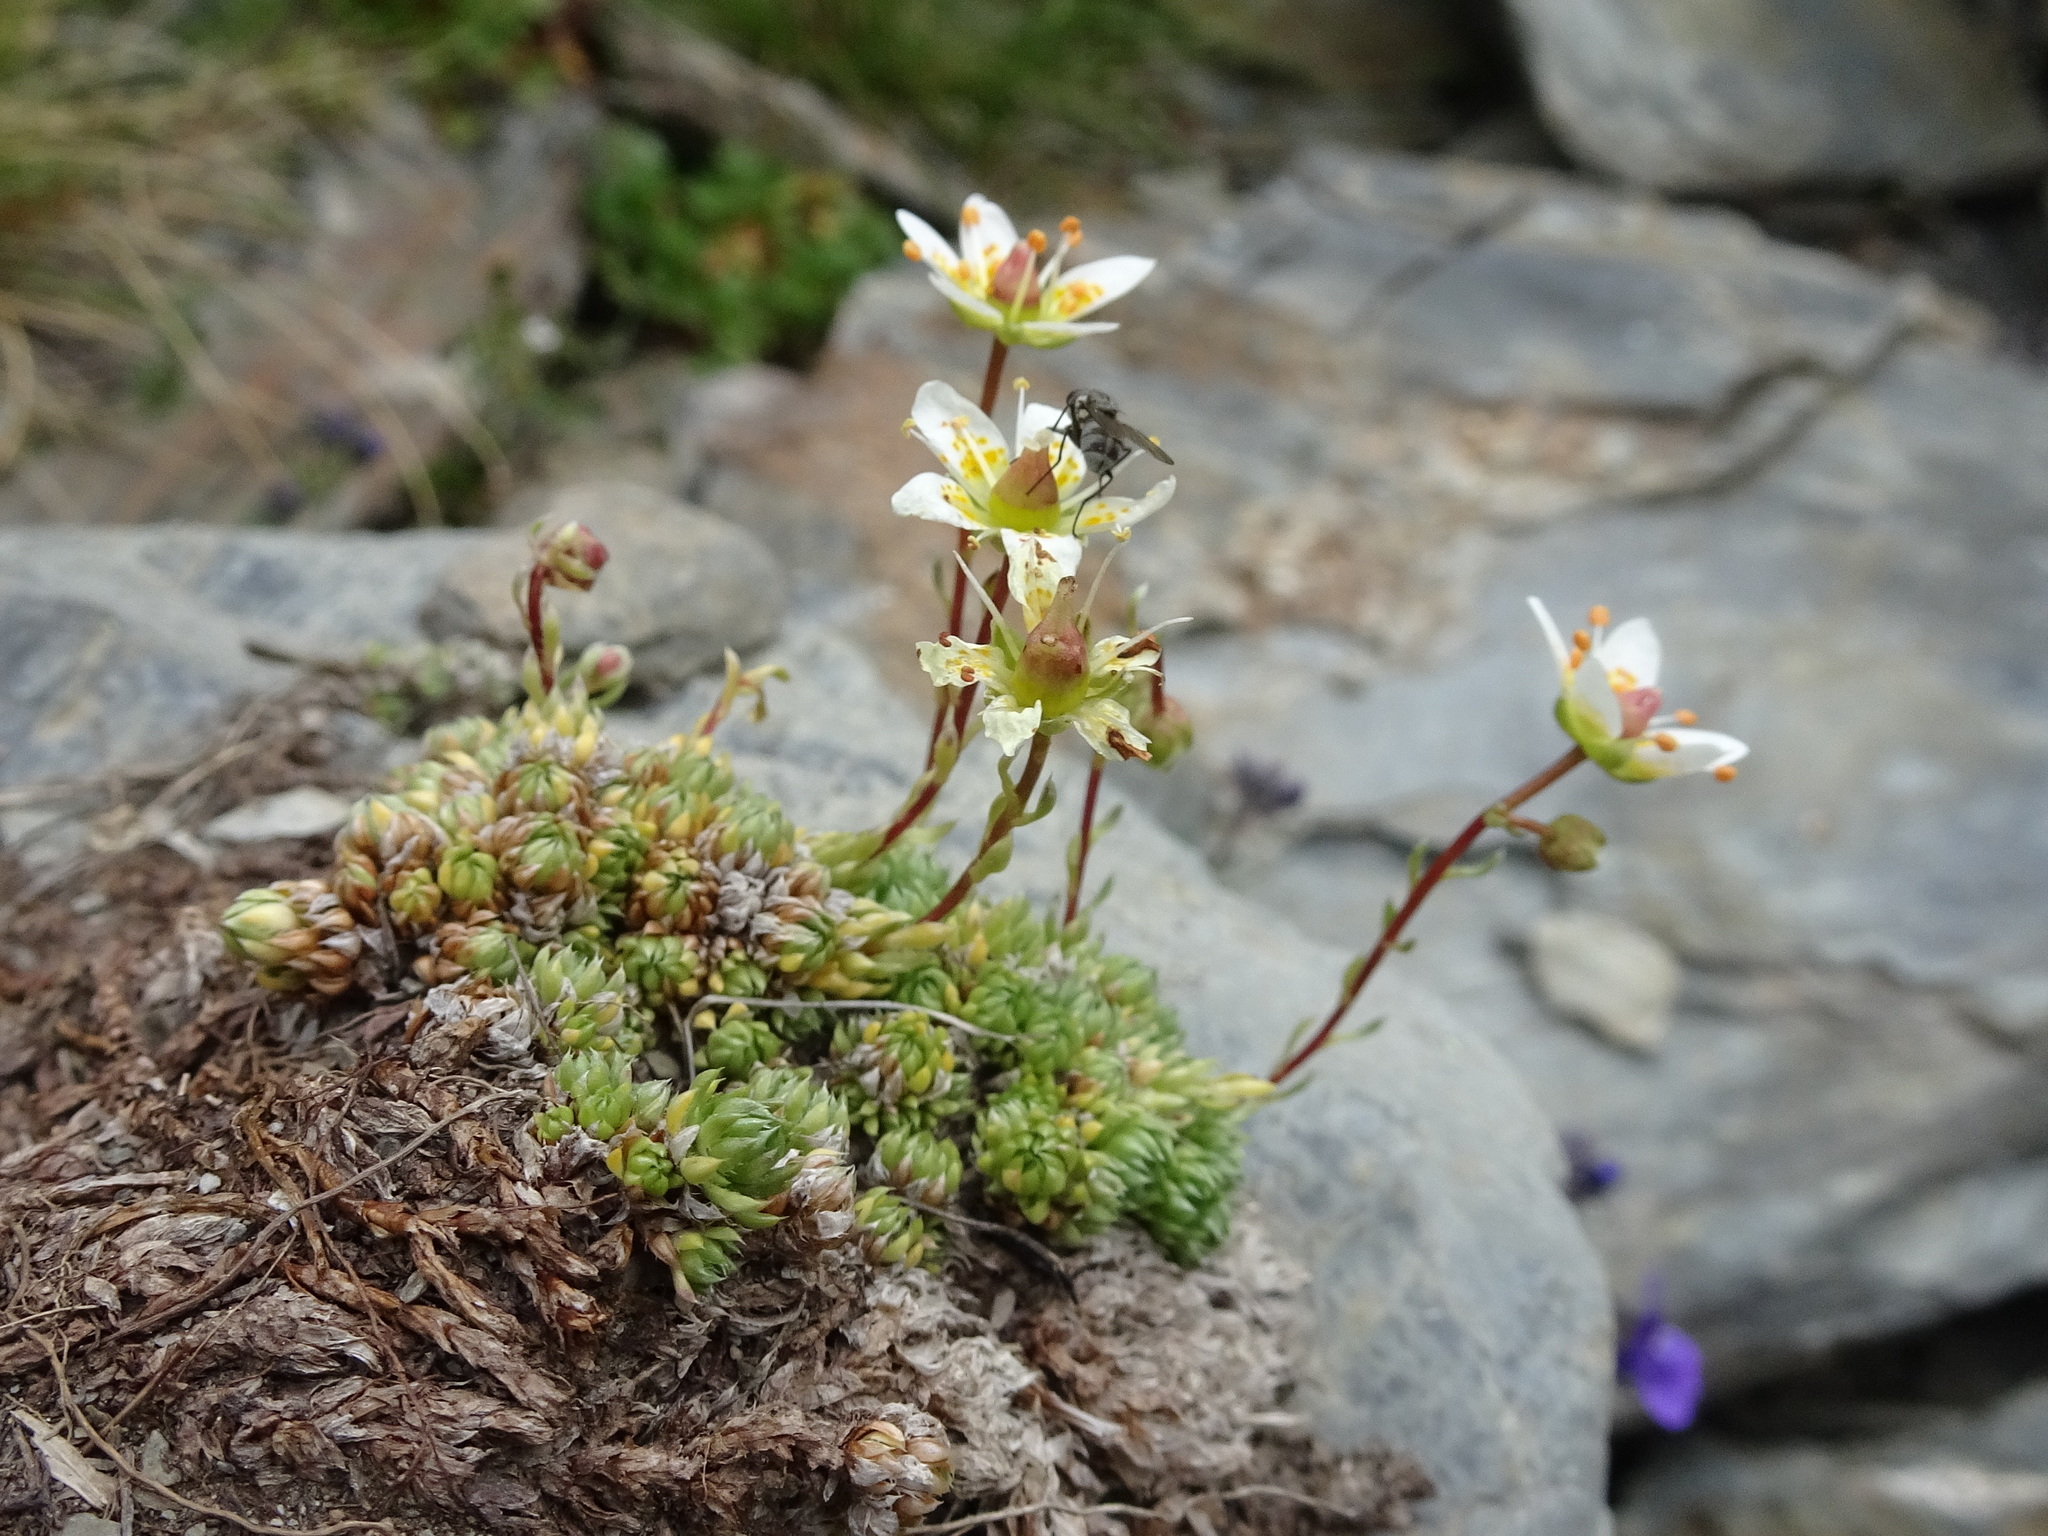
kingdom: Plantae
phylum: Tracheophyta
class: Magnoliopsida
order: Saxifragales
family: Saxifragaceae
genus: Saxifraga
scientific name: Saxifraga bryoides
